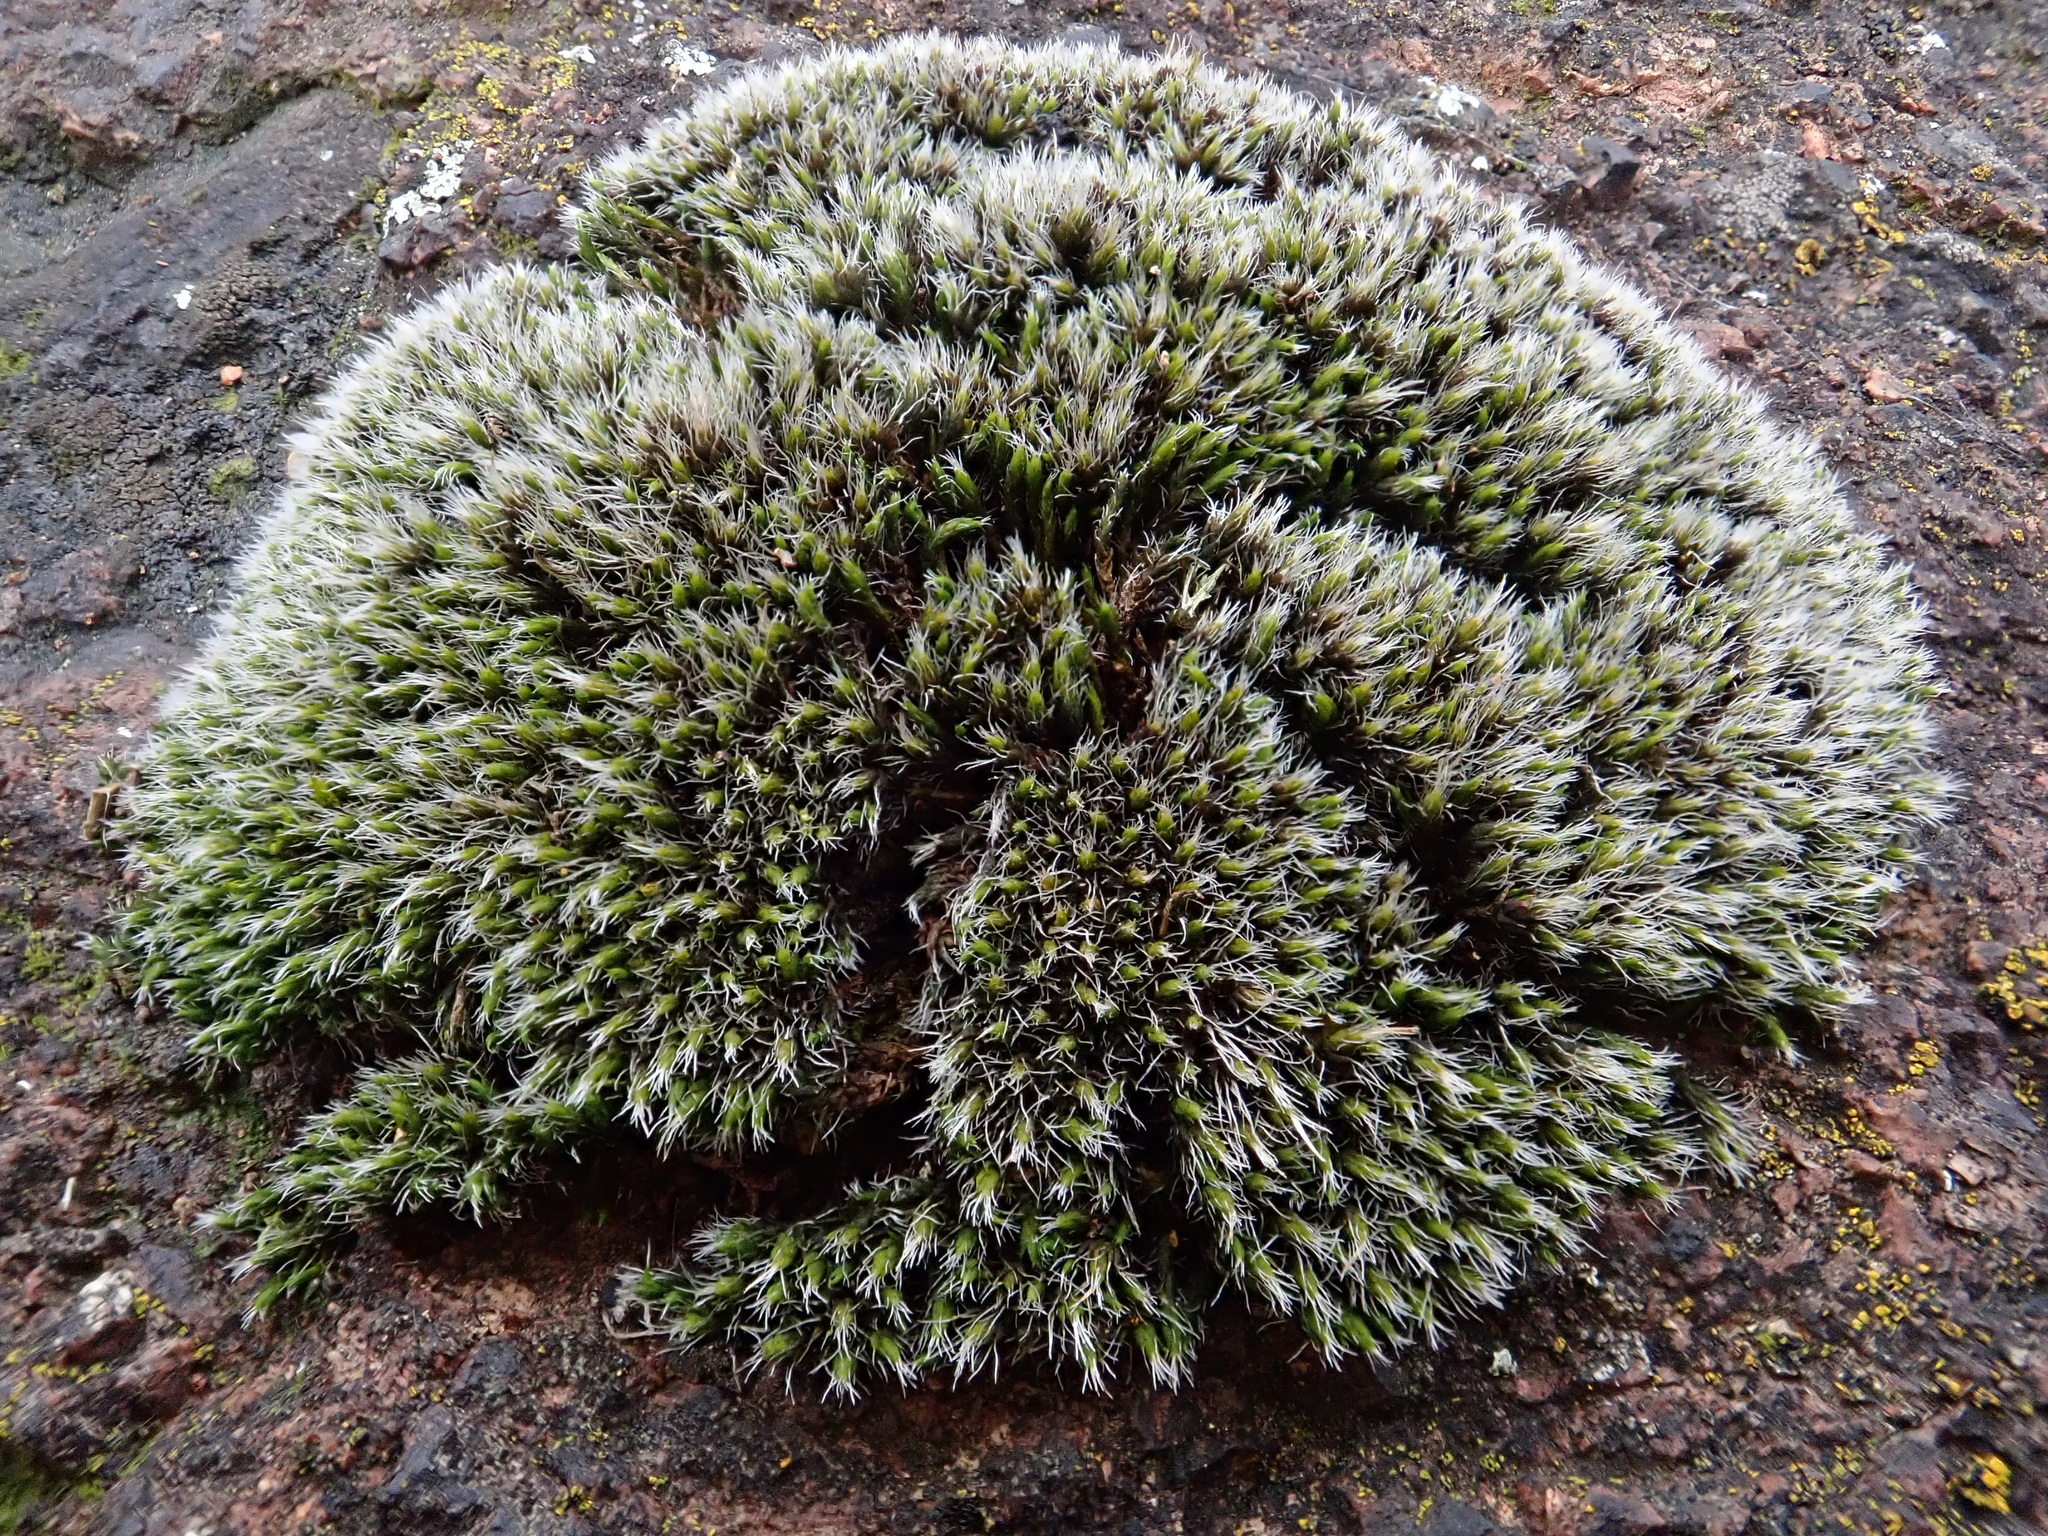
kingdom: Plantae
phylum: Bryophyta
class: Bryopsida
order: Grimmiales
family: Grimmiaceae
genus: Grimmia
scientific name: Grimmia laevigata
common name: Hoary grimmia
